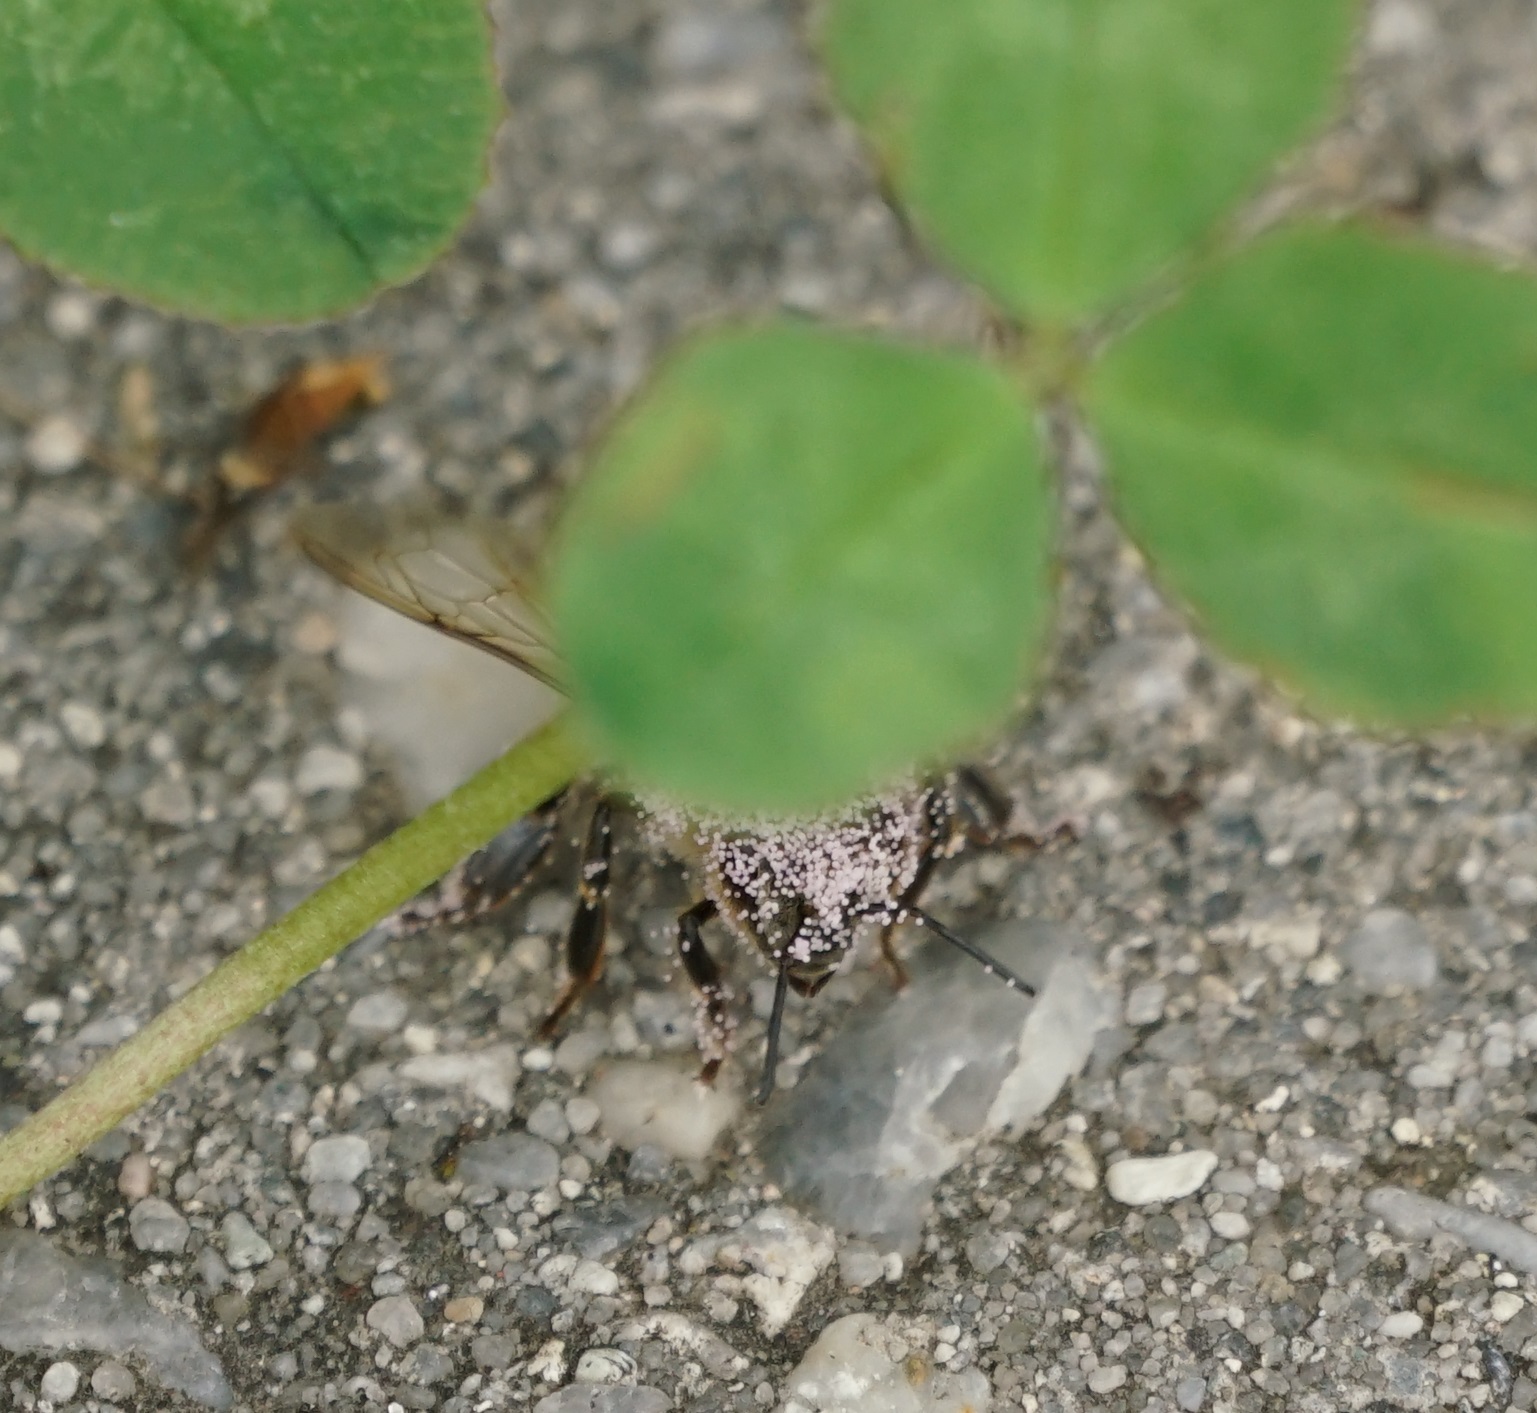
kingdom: Animalia
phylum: Arthropoda
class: Insecta
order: Hymenoptera
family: Apidae
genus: Apis
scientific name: Apis mellifera
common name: Honey bee
